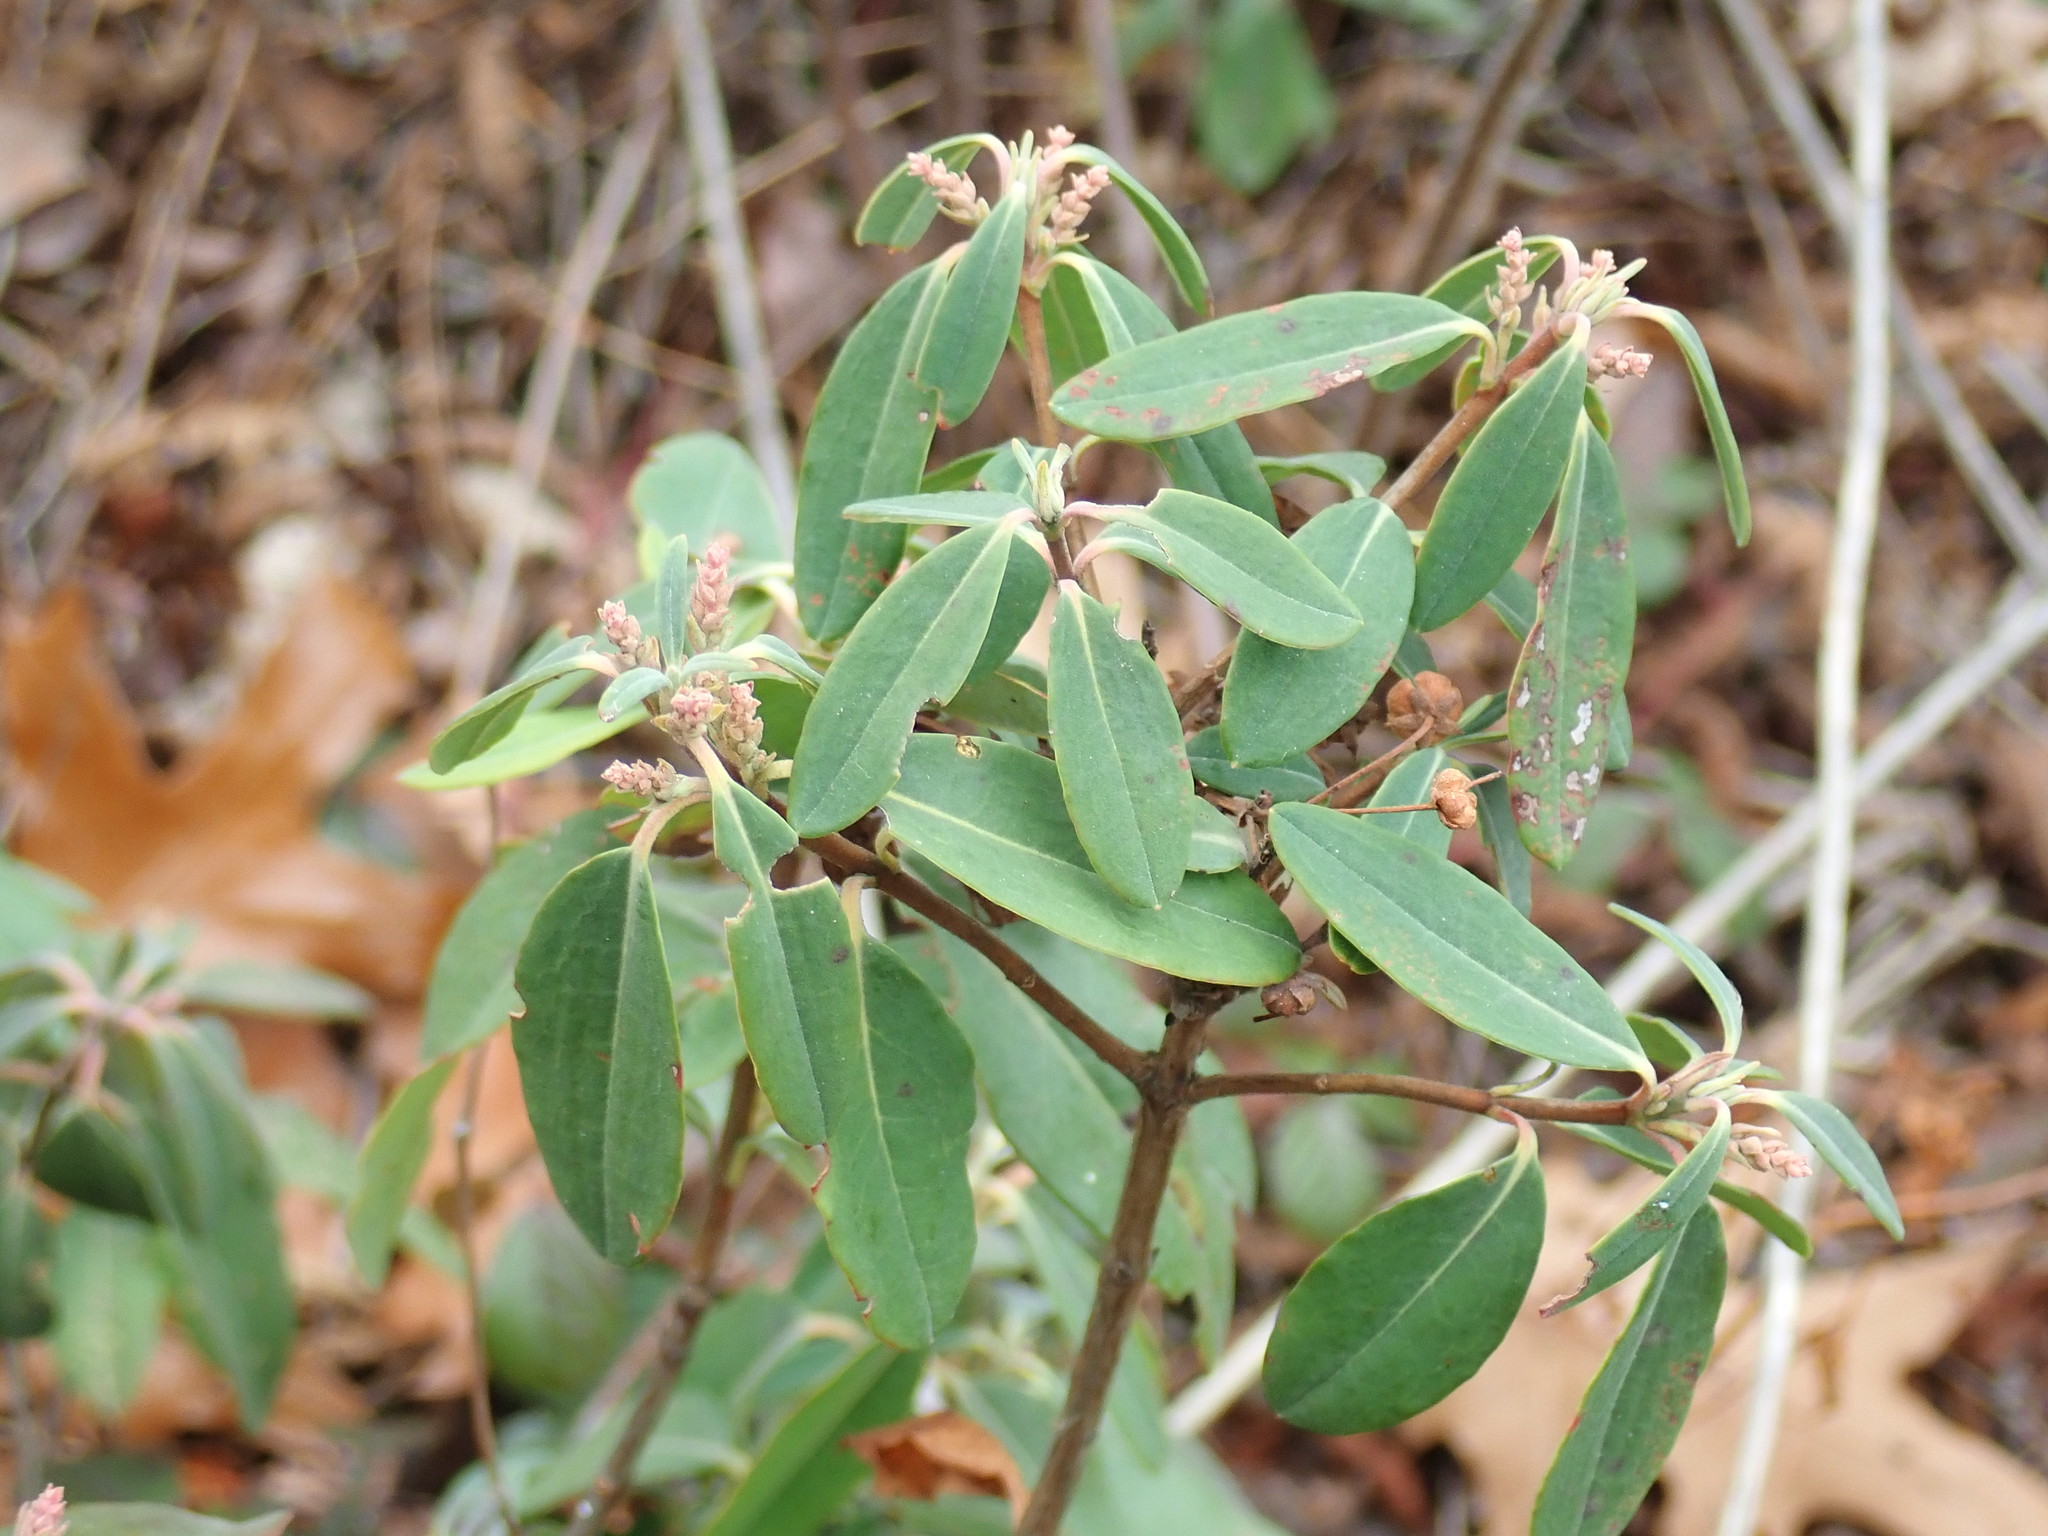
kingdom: Plantae
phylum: Tracheophyta
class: Magnoliopsida
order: Ericales
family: Ericaceae
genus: Kalmia
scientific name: Kalmia angustifolia
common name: Sheep-laurel
